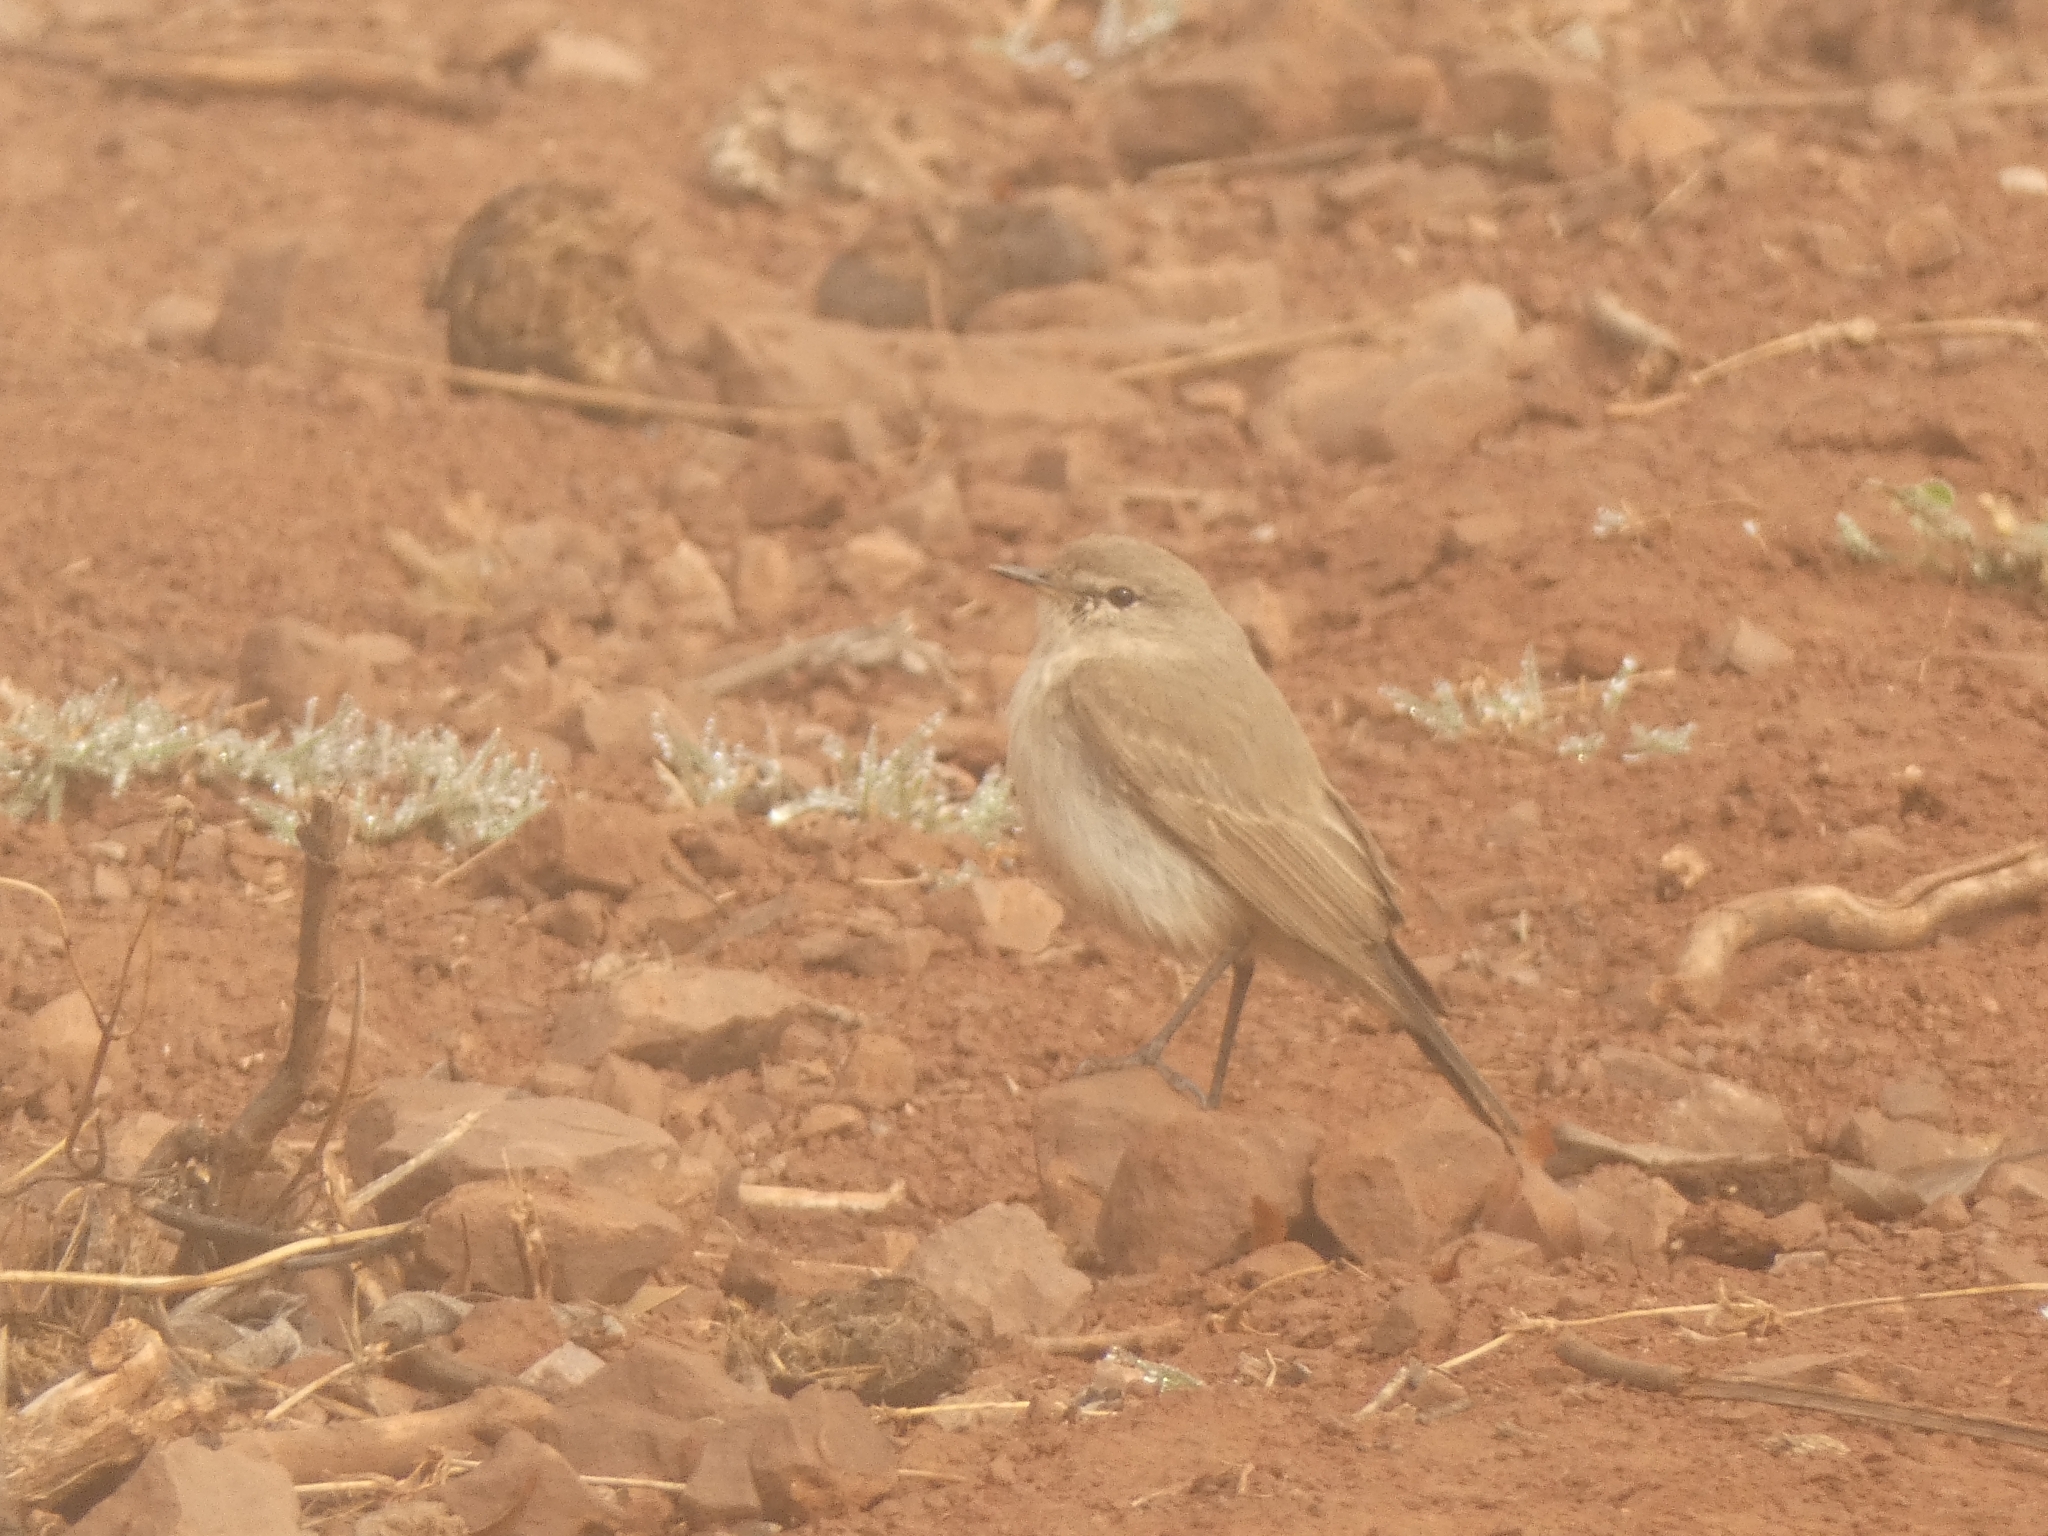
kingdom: Animalia
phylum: Chordata
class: Aves
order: Passeriformes
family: Tyrannidae
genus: Muscisaxicola
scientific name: Muscisaxicola maculirostris
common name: Spot-billed ground tyrant
